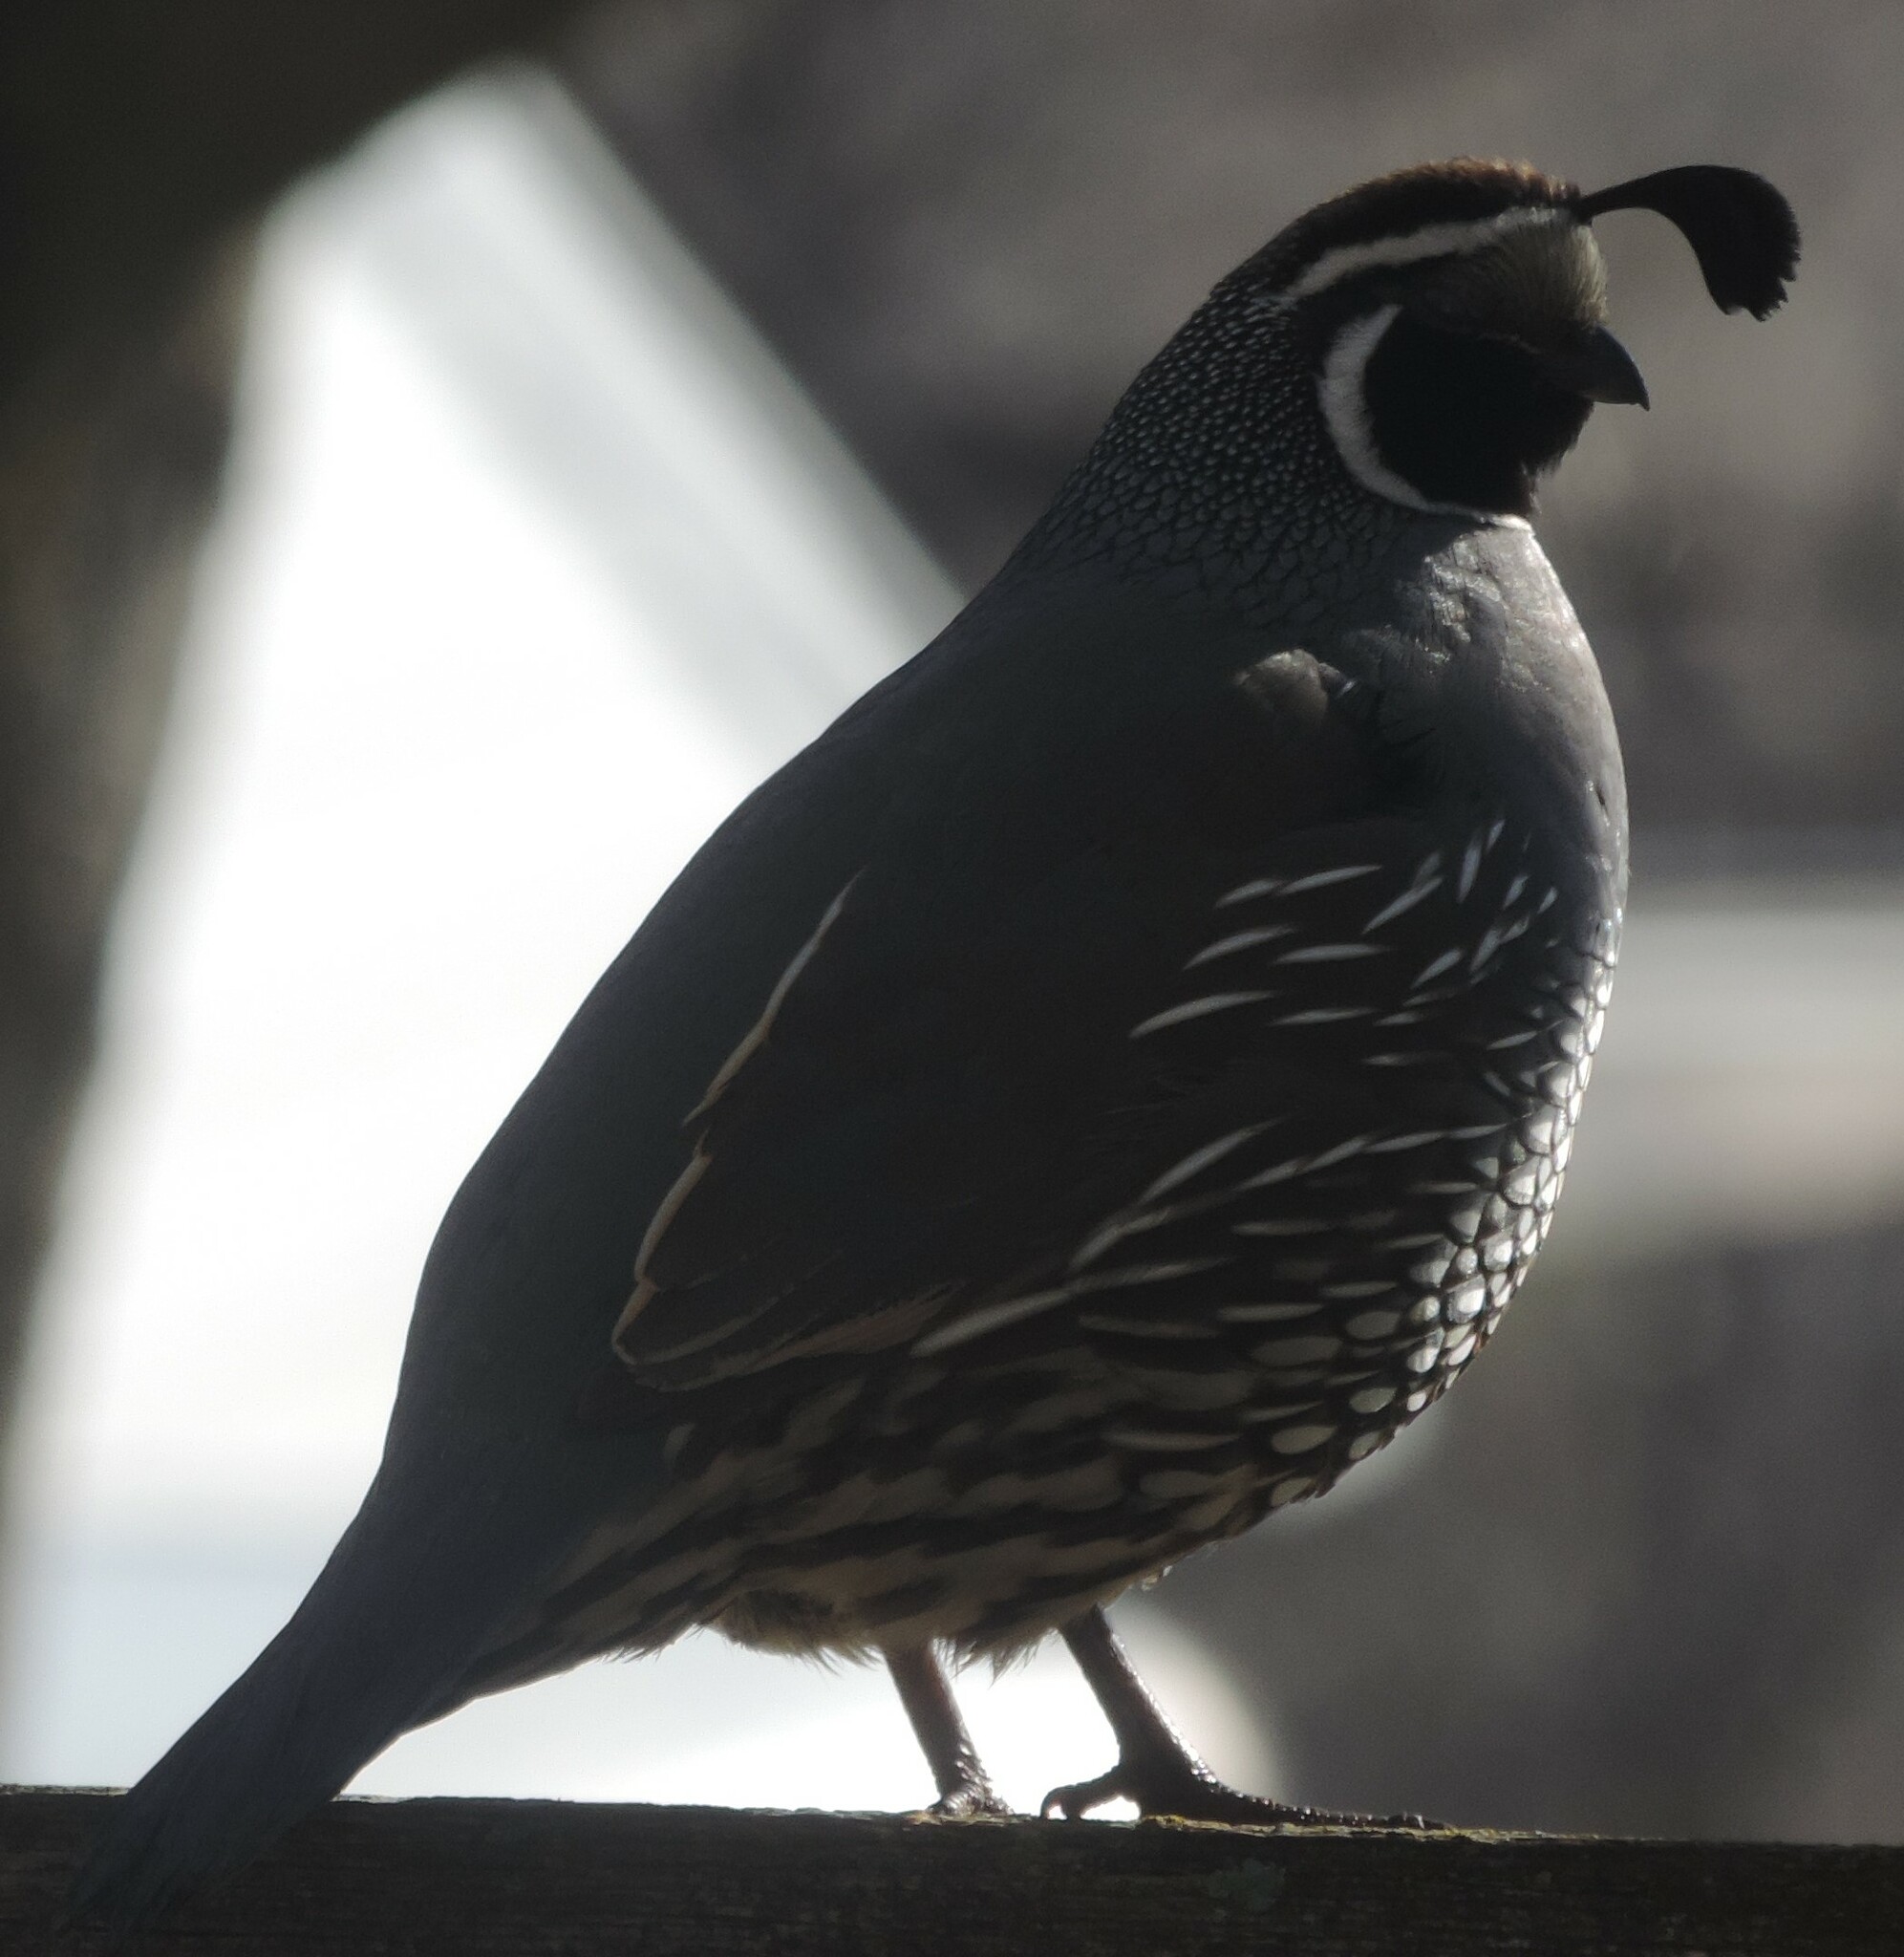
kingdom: Animalia
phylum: Chordata
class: Aves
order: Galliformes
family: Odontophoridae
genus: Callipepla
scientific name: Callipepla californica
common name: California quail
